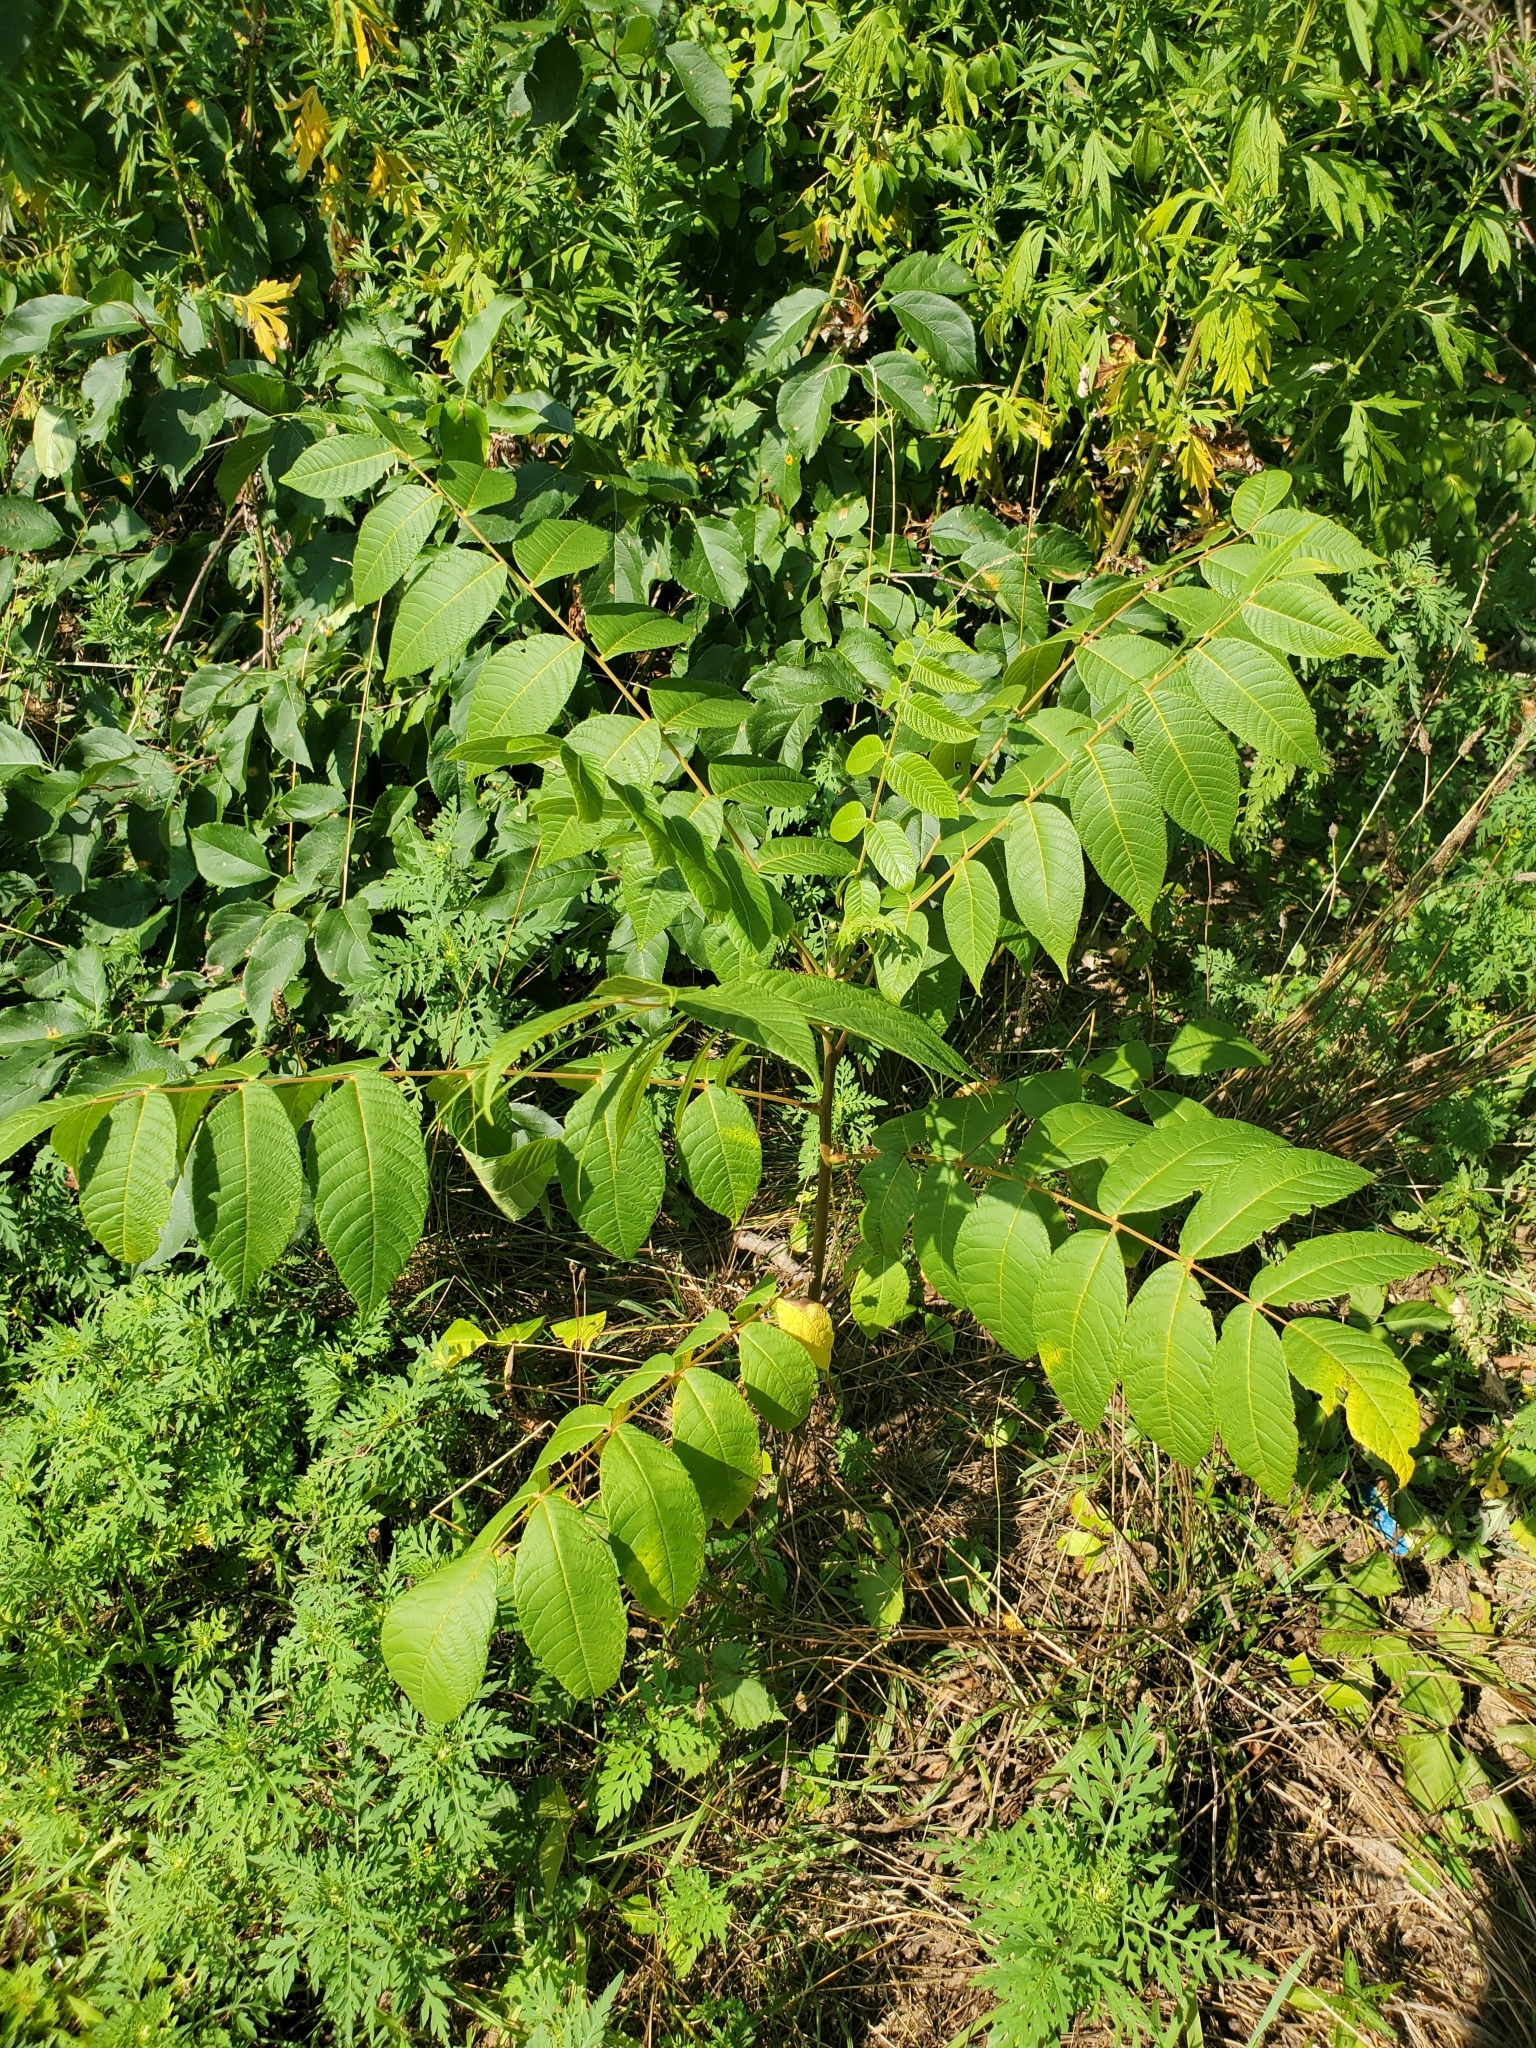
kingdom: Plantae
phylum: Tracheophyta
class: Magnoliopsida
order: Fagales
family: Juglandaceae
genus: Juglans
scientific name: Juglans nigra
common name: Black walnut
